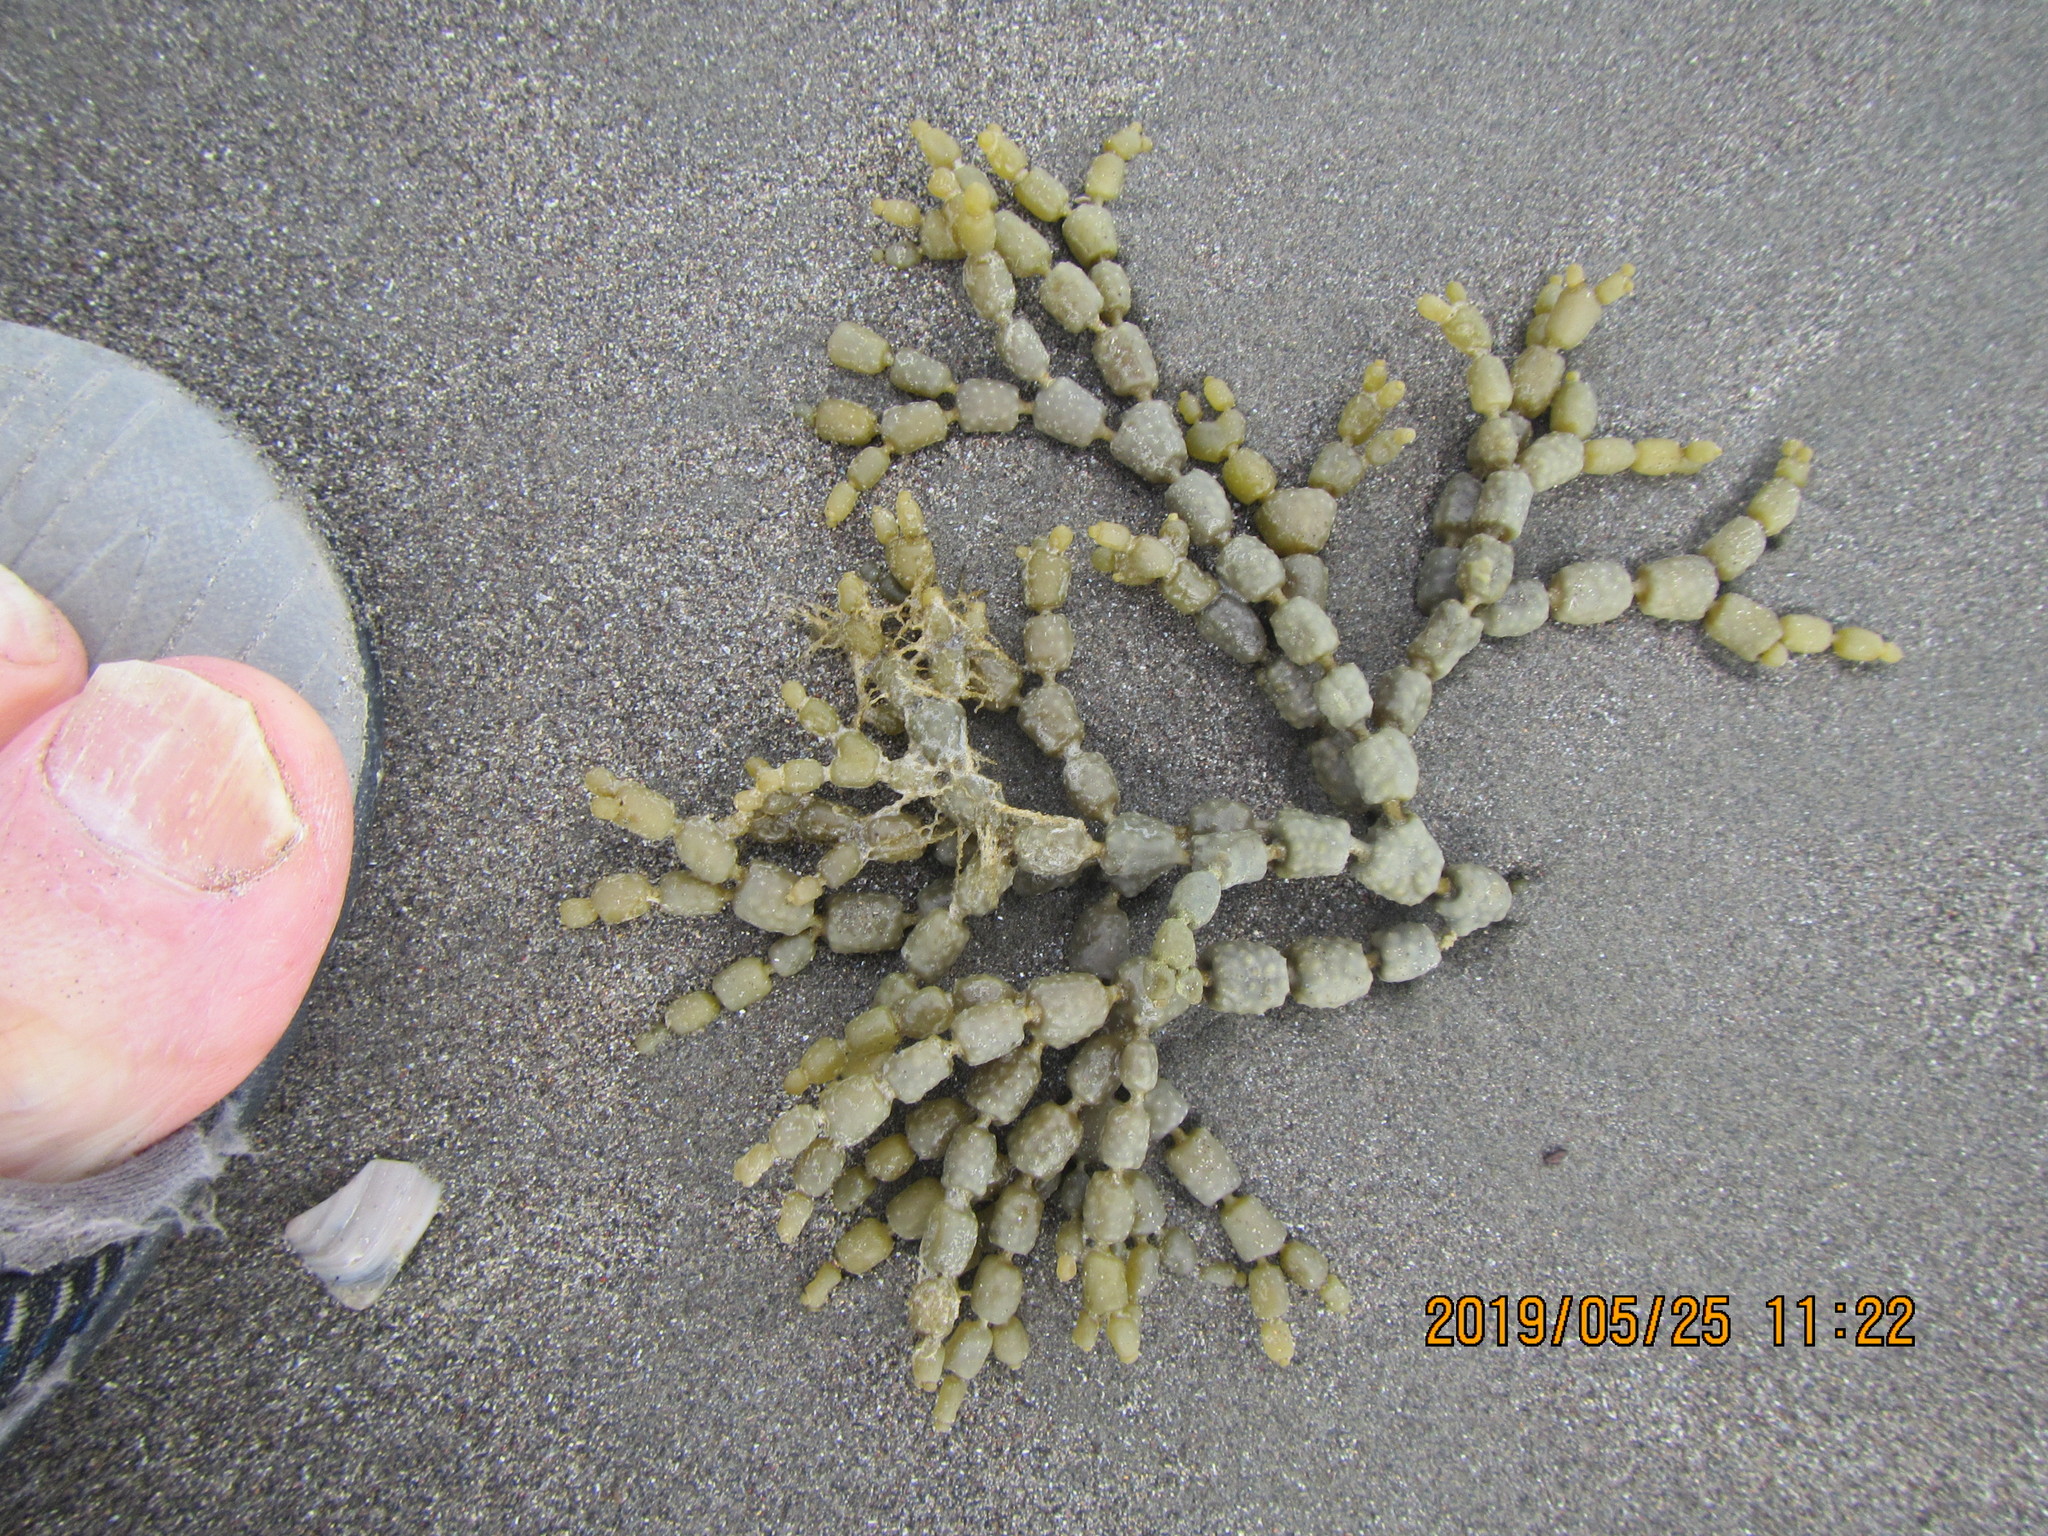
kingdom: Chromista
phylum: Ochrophyta
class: Phaeophyceae
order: Fucales
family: Hormosiraceae
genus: Hormosira
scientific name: Hormosira banksii
